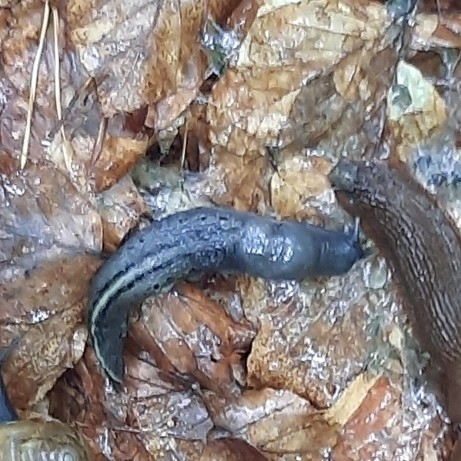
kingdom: Animalia
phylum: Mollusca
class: Gastropoda
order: Stylommatophora
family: Limacidae
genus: Limax
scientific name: Limax cinereoniger
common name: Ash-black slug
